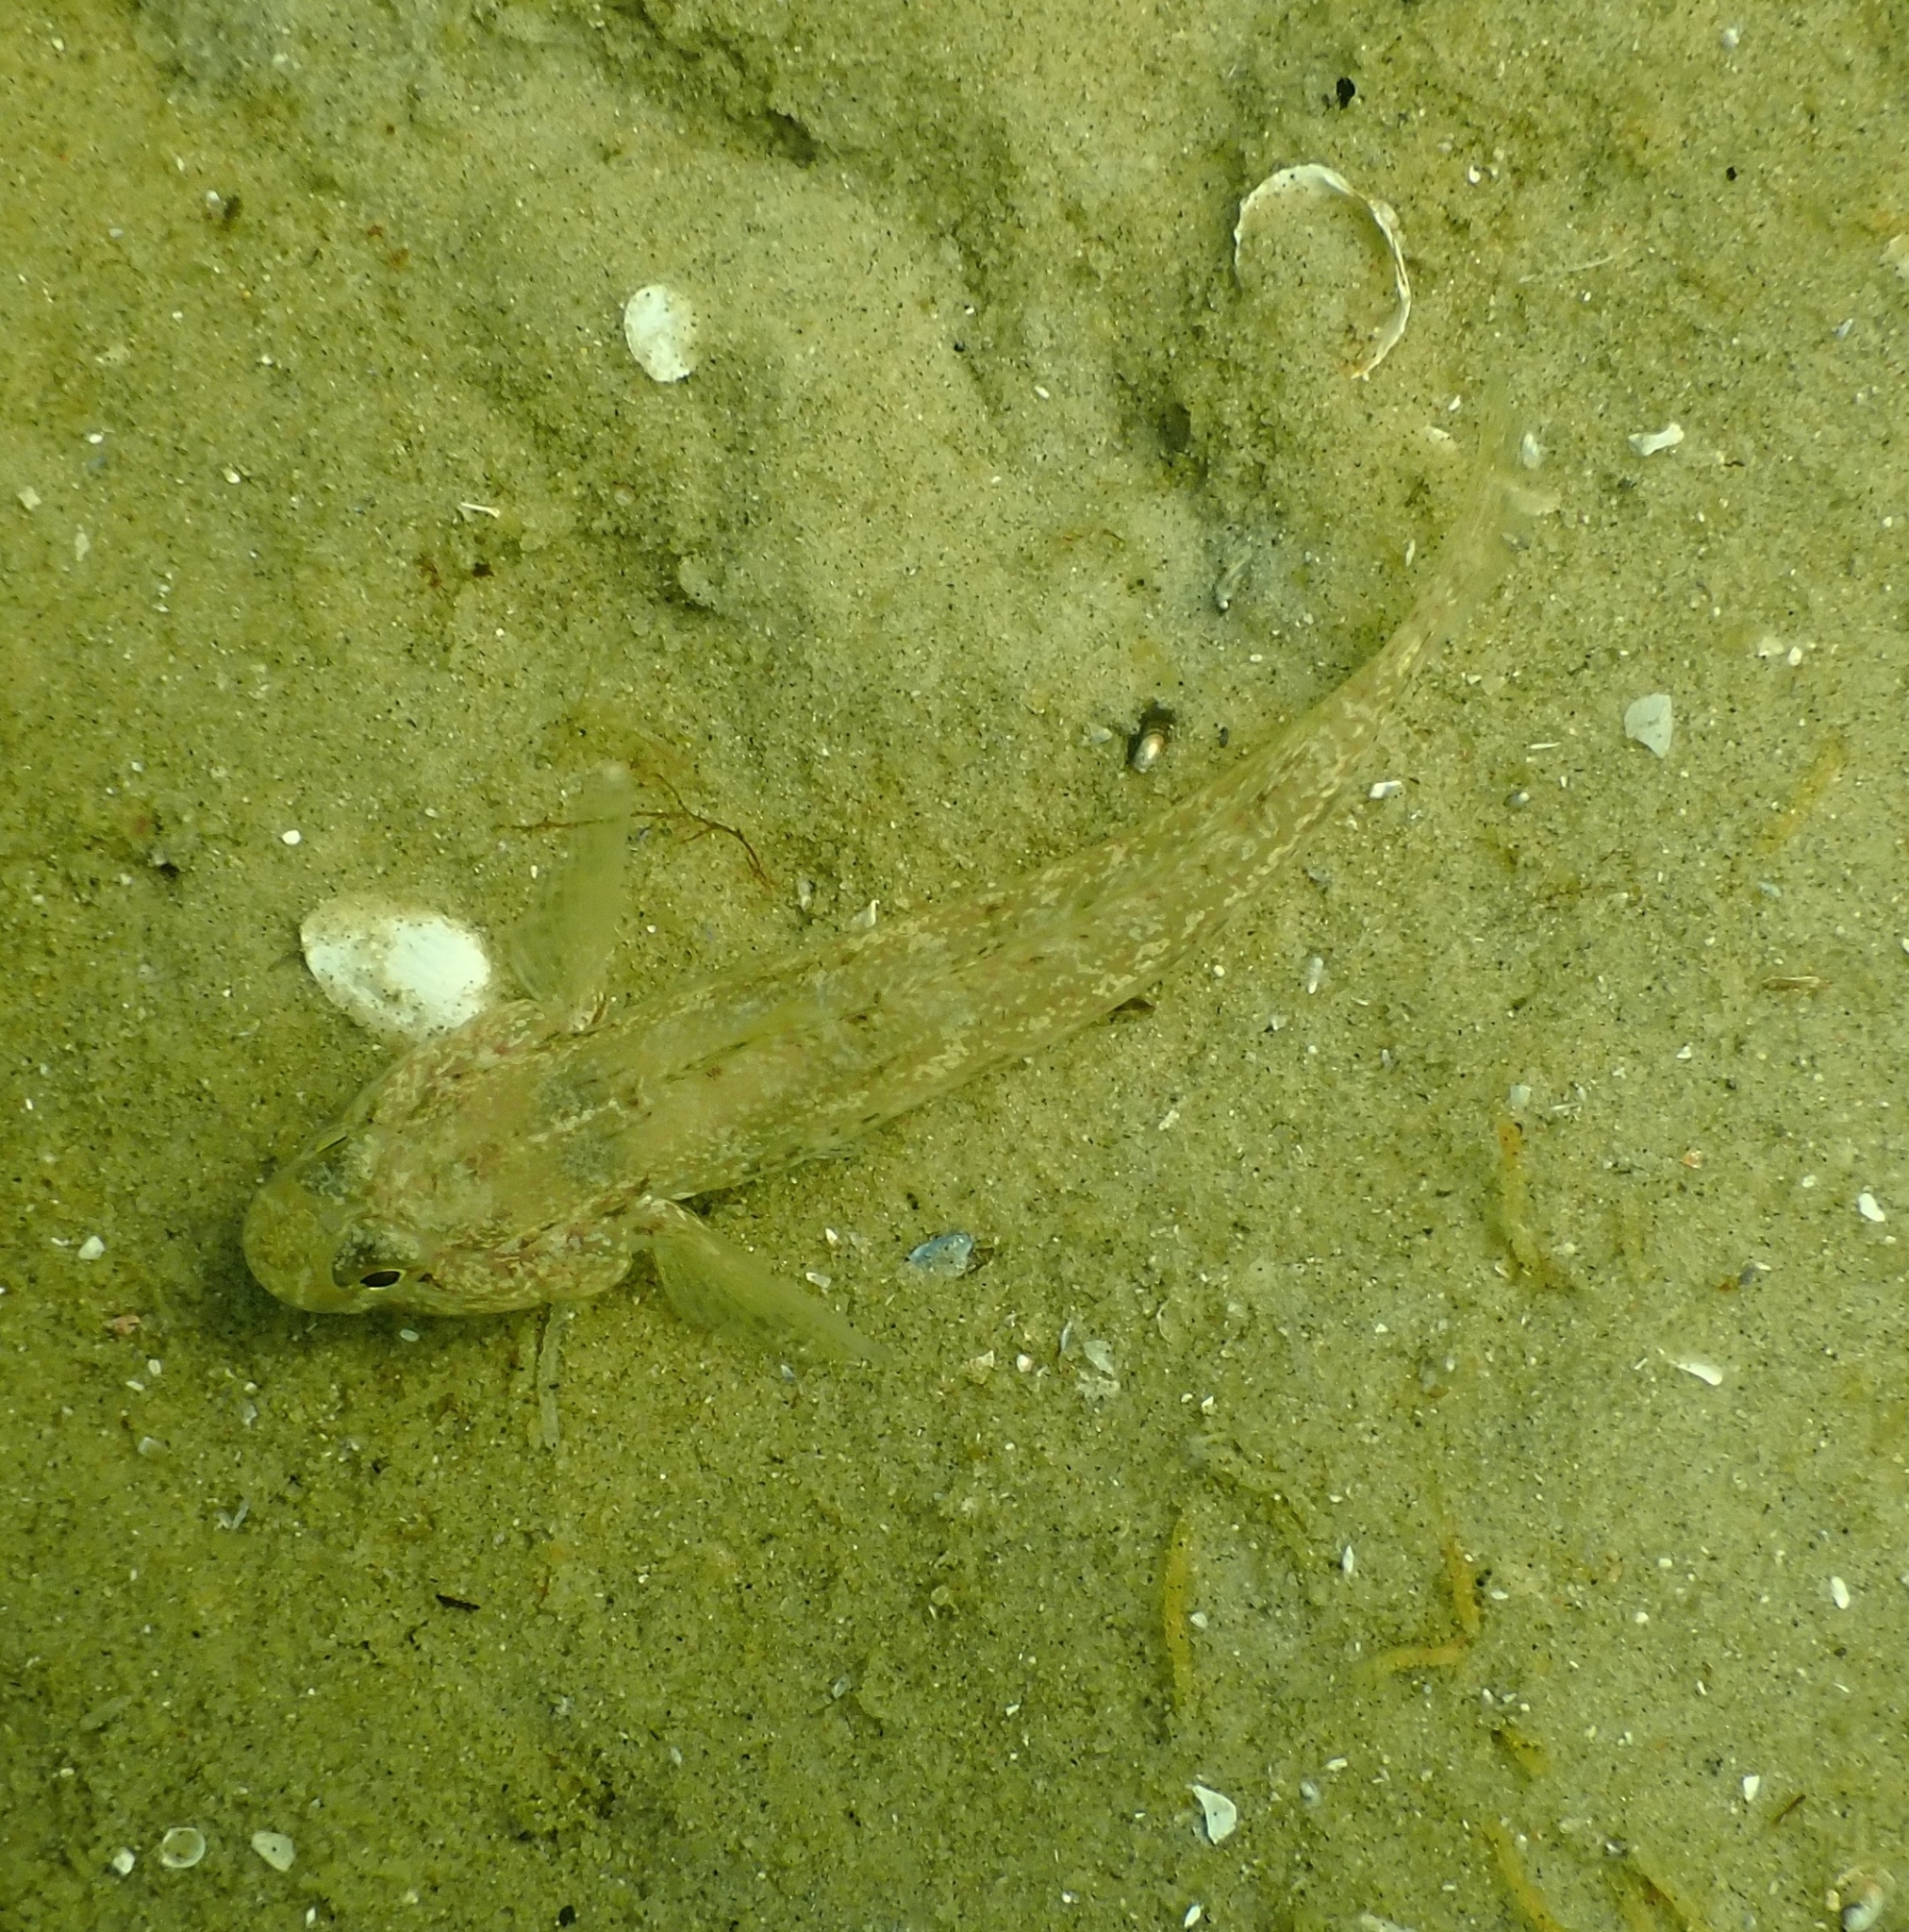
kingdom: Animalia
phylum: Chordata
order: Perciformes
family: Gobiidae
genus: Gobius
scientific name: Gobius niger
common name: Black goby
